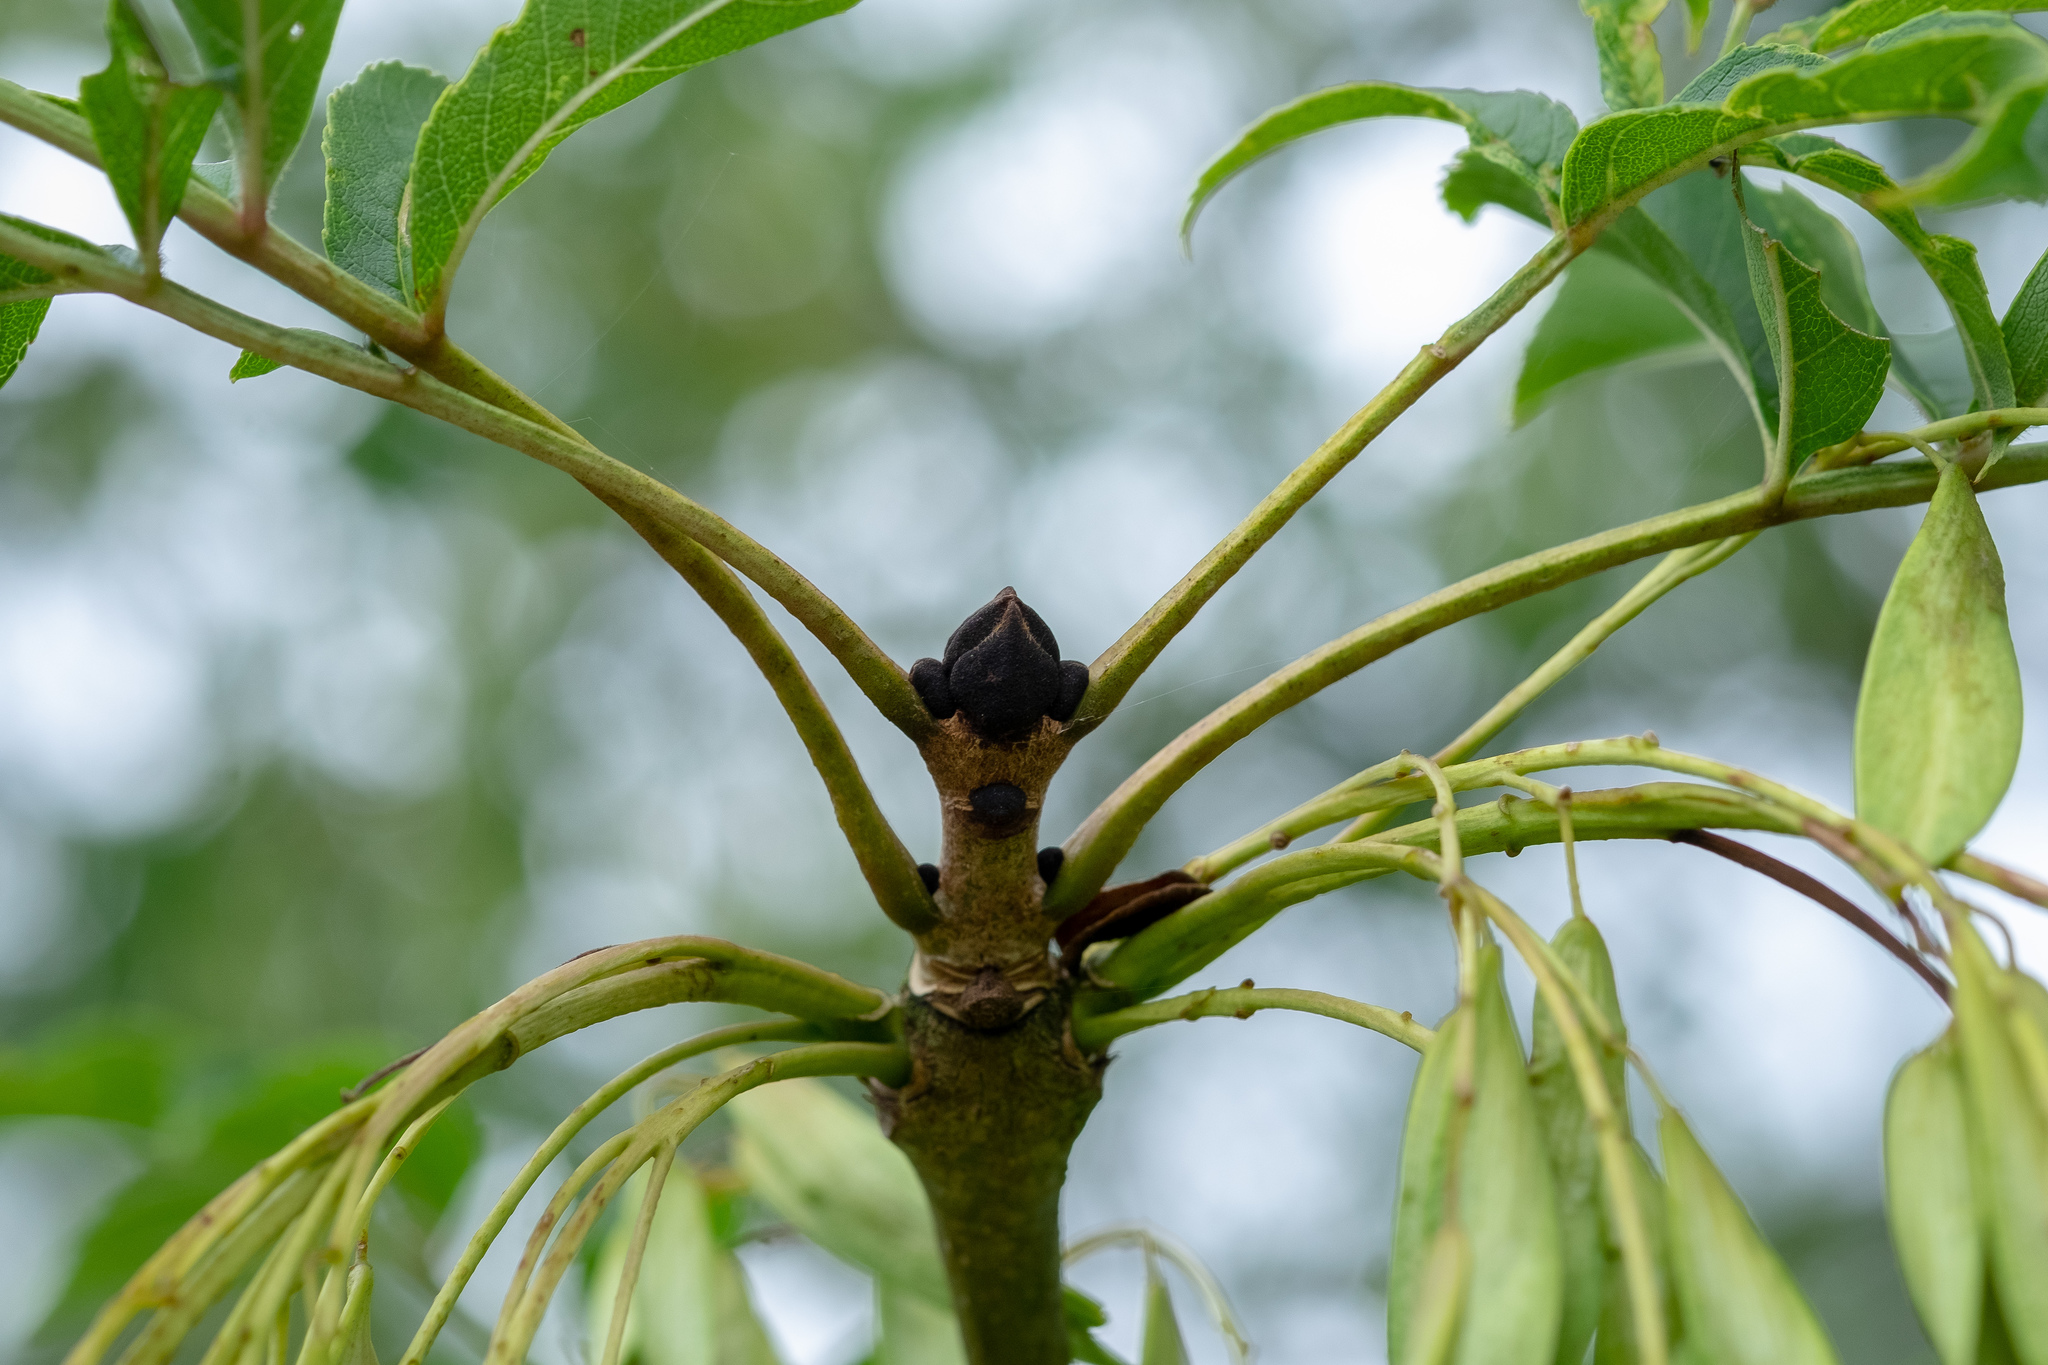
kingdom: Plantae
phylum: Tracheophyta
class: Magnoliopsida
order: Lamiales
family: Oleaceae
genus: Fraxinus
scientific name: Fraxinus excelsior
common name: European ash
